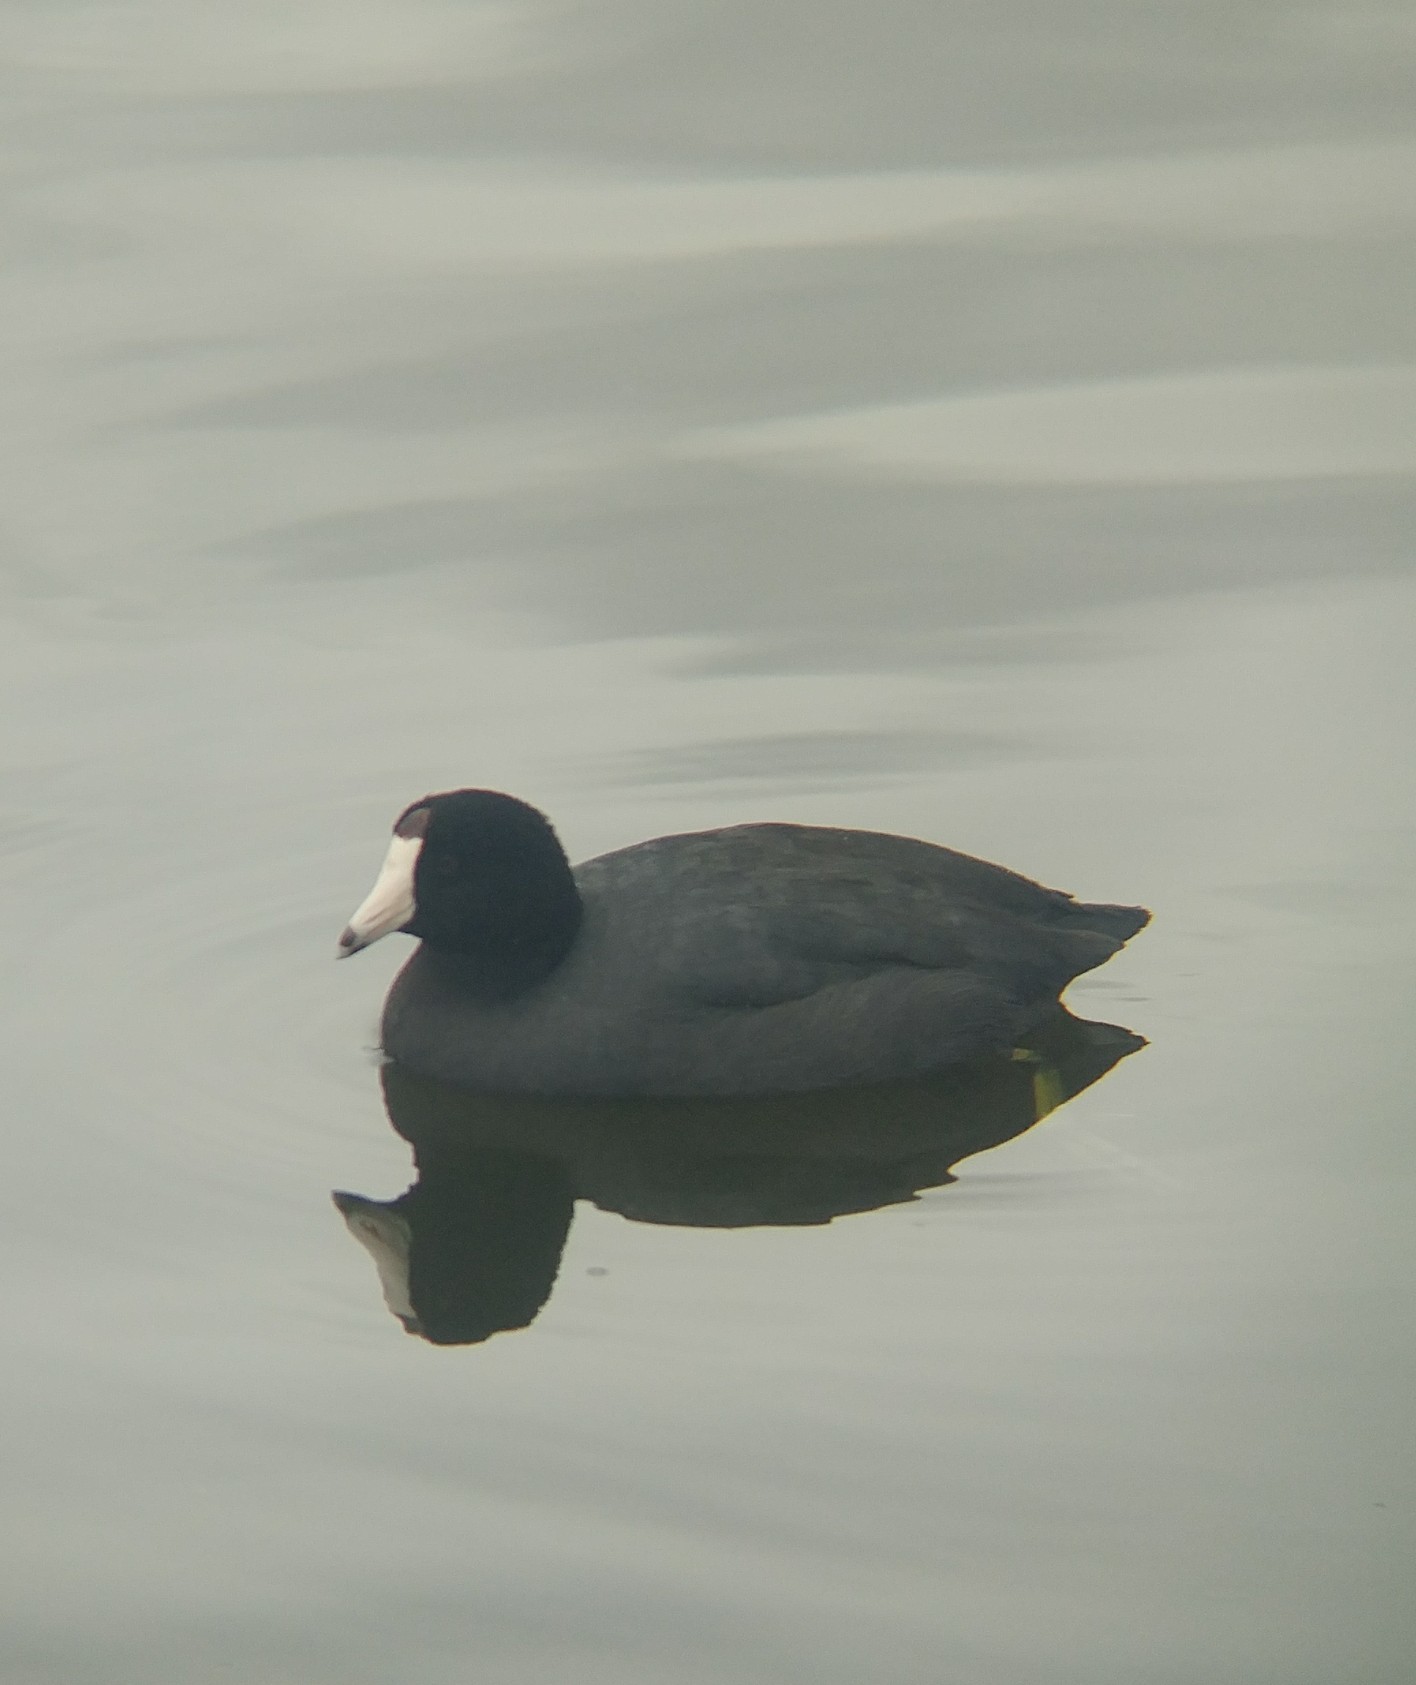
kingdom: Animalia
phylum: Chordata
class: Aves
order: Gruiformes
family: Rallidae
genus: Fulica
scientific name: Fulica americana
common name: American coot
